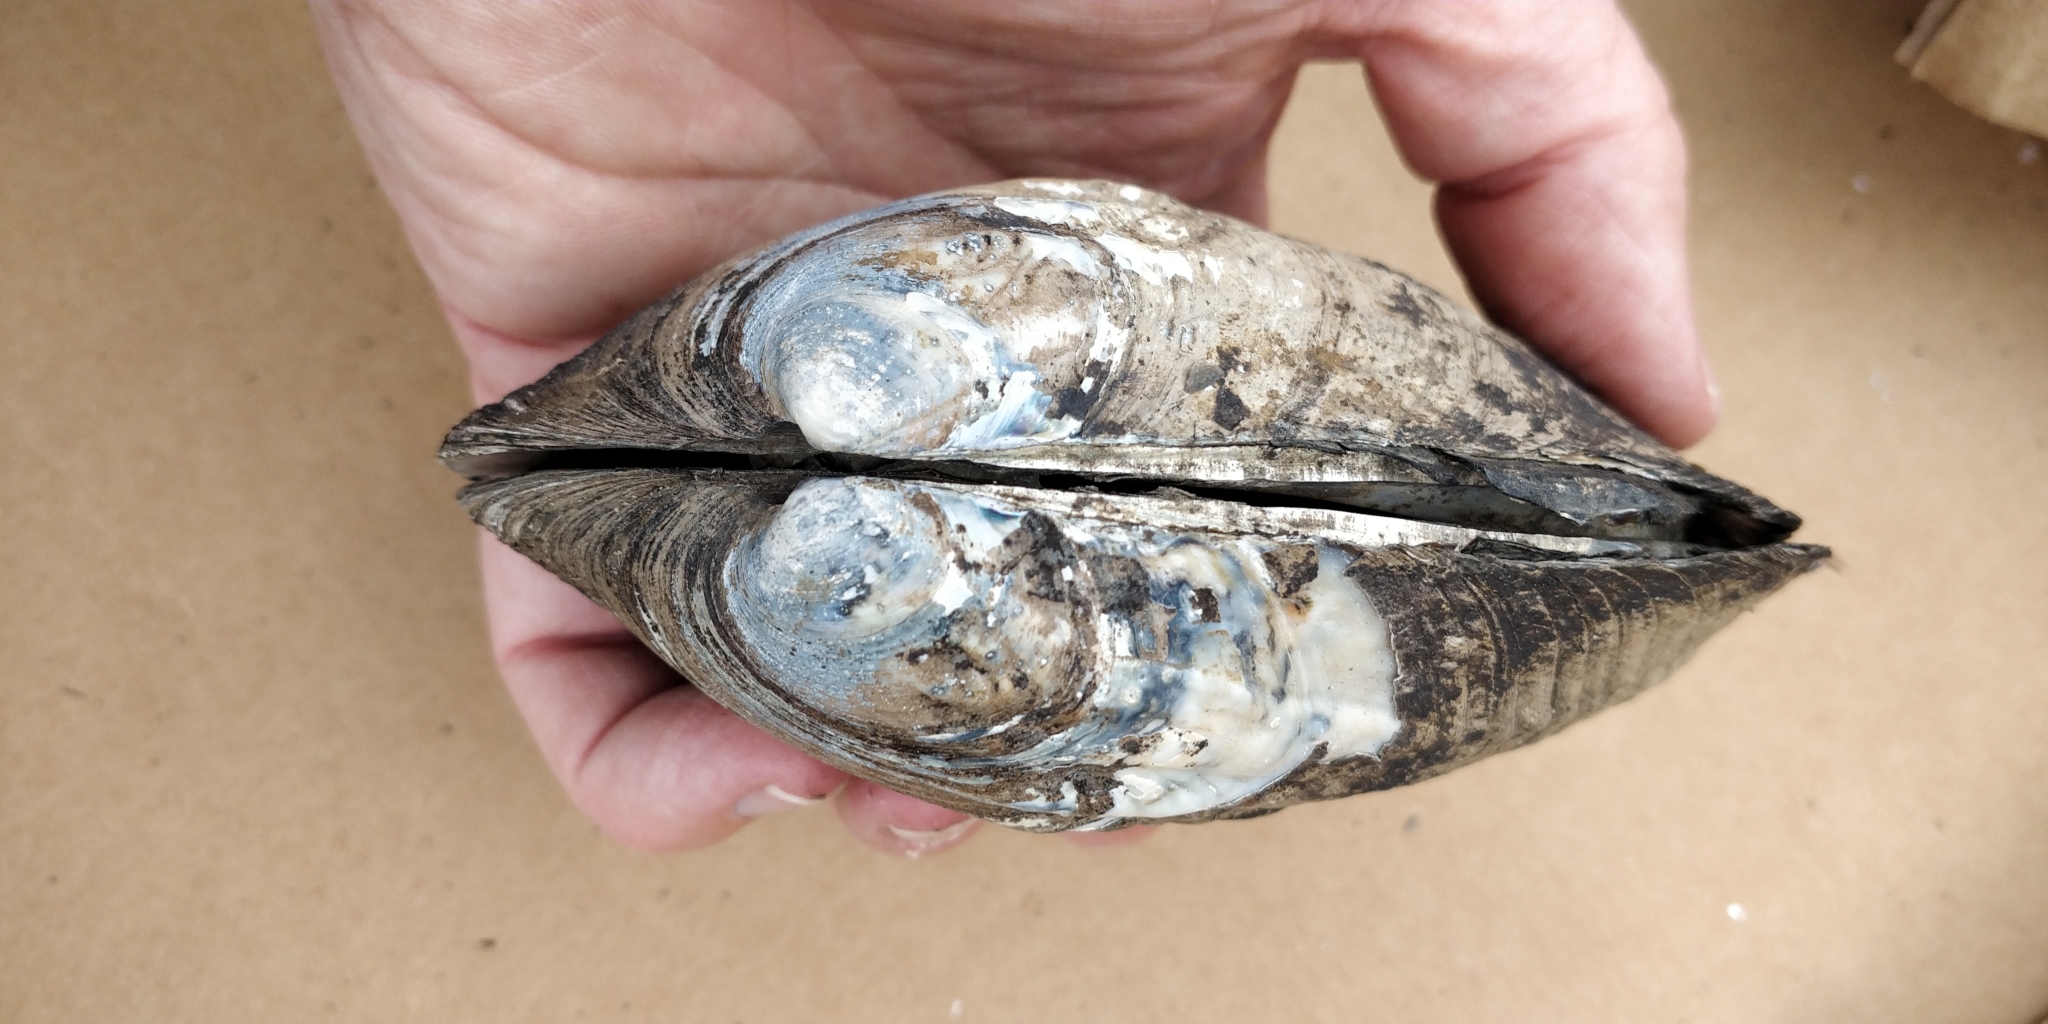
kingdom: Animalia
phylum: Mollusca
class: Bivalvia
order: Unionida
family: Unionidae
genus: Amblema
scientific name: Amblema plicata
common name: Threeridge
